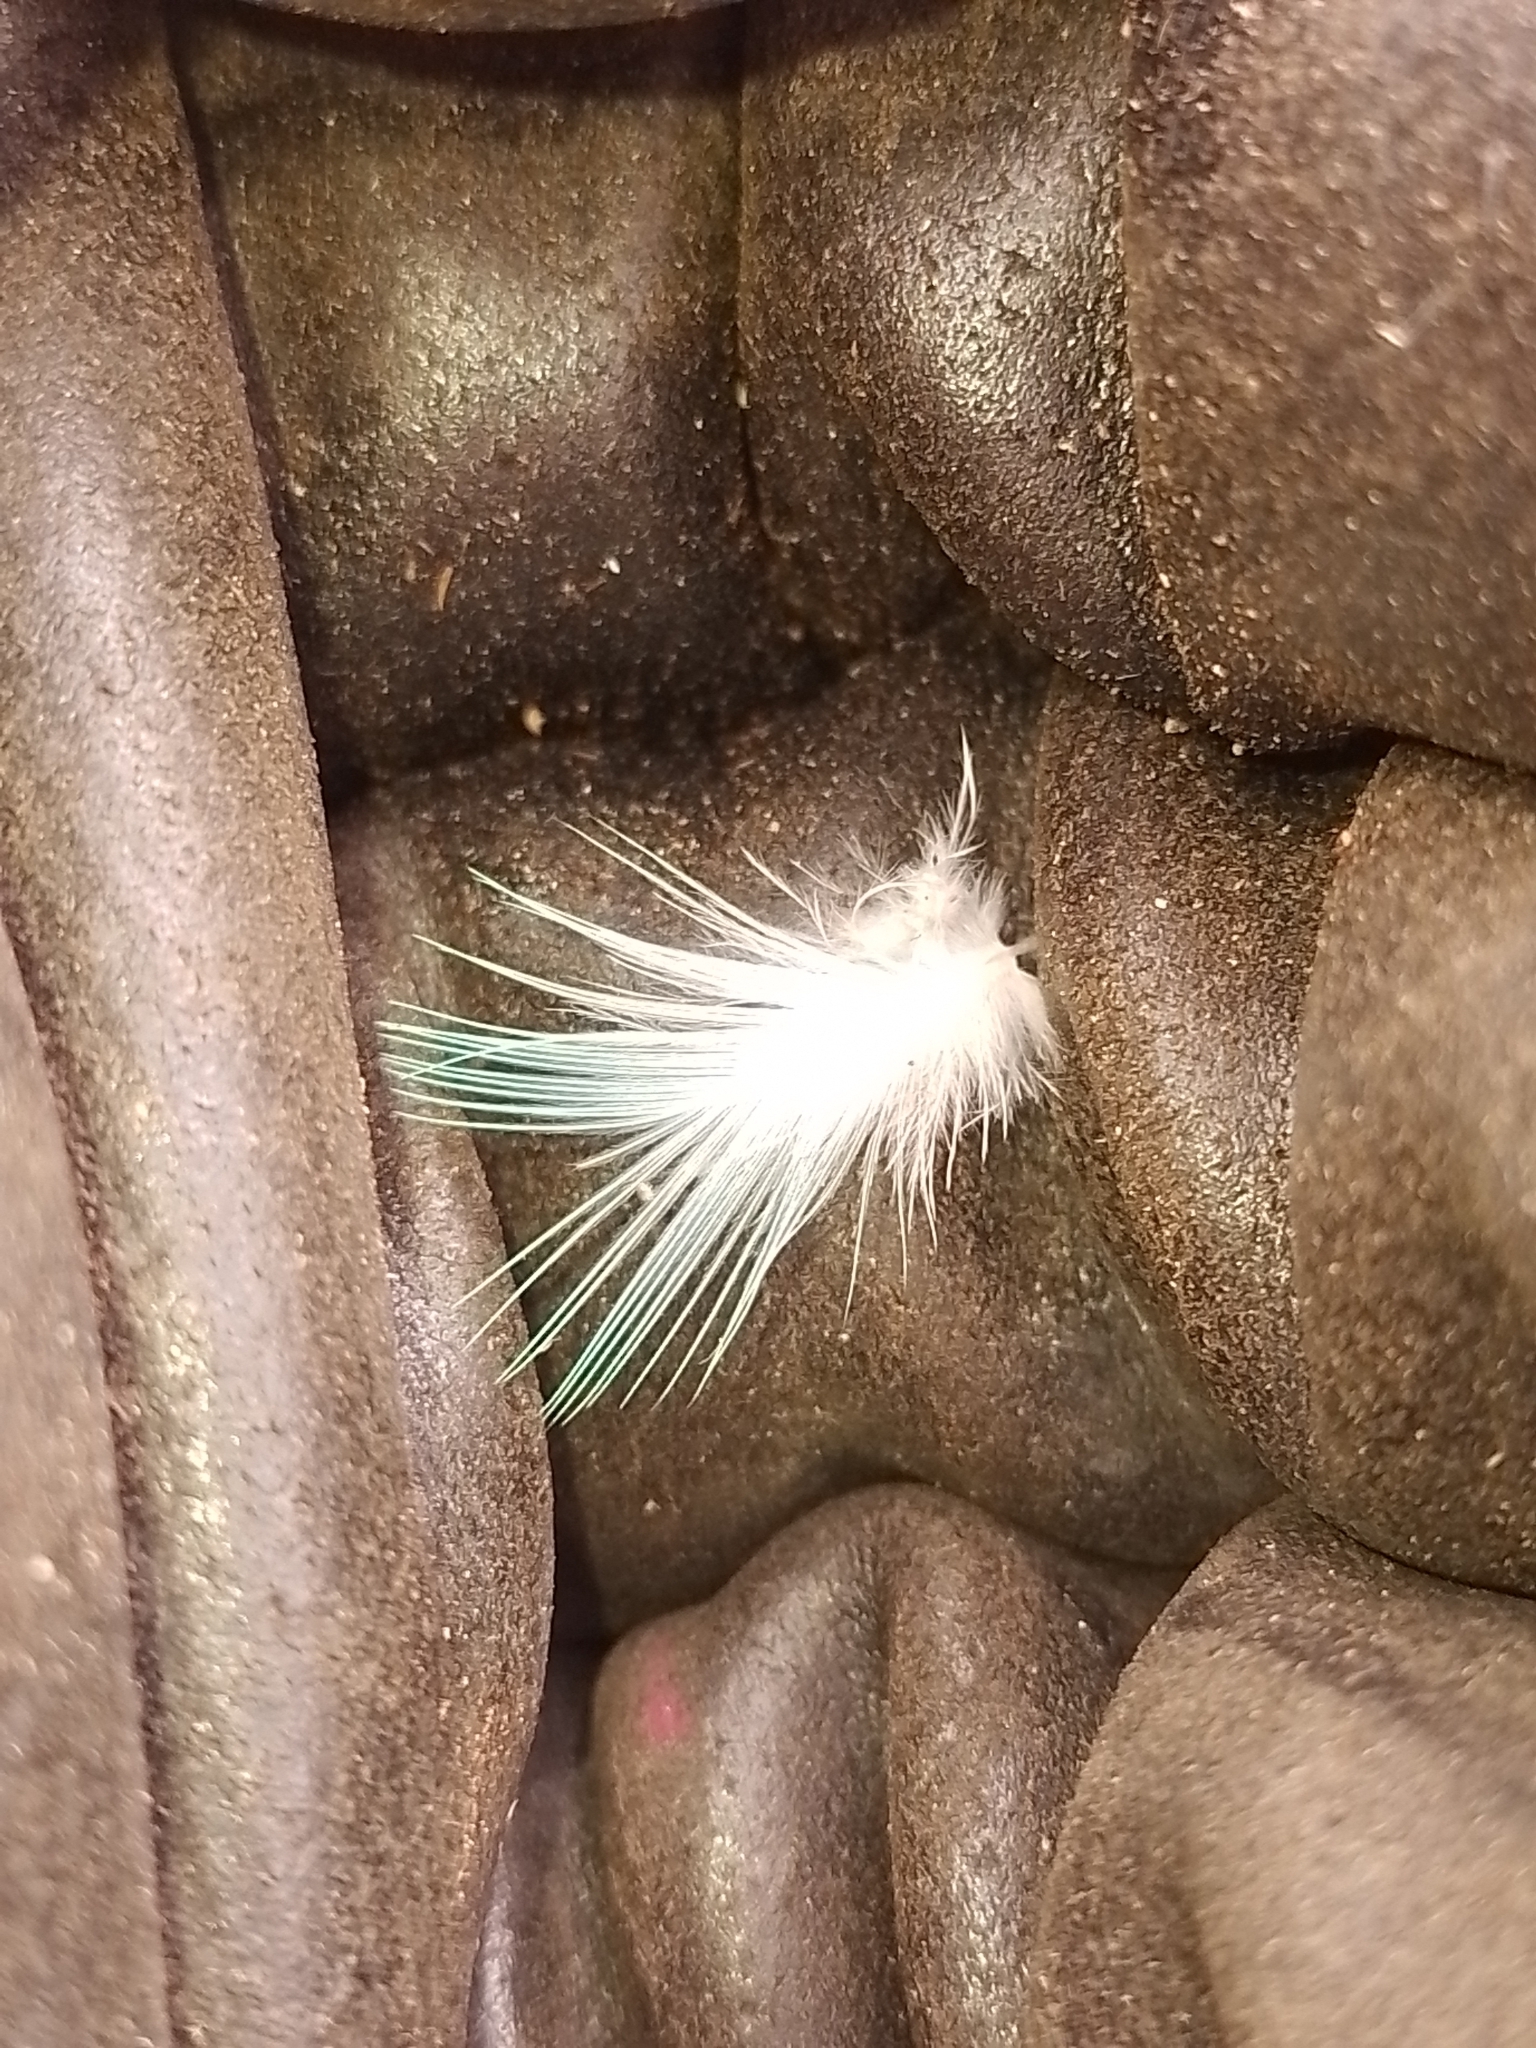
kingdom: Animalia
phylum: Chordata
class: Aves
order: Coraciiformes
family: Alcedinidae
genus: Todiramphus
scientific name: Todiramphus sanctus
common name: Sacred kingfisher
